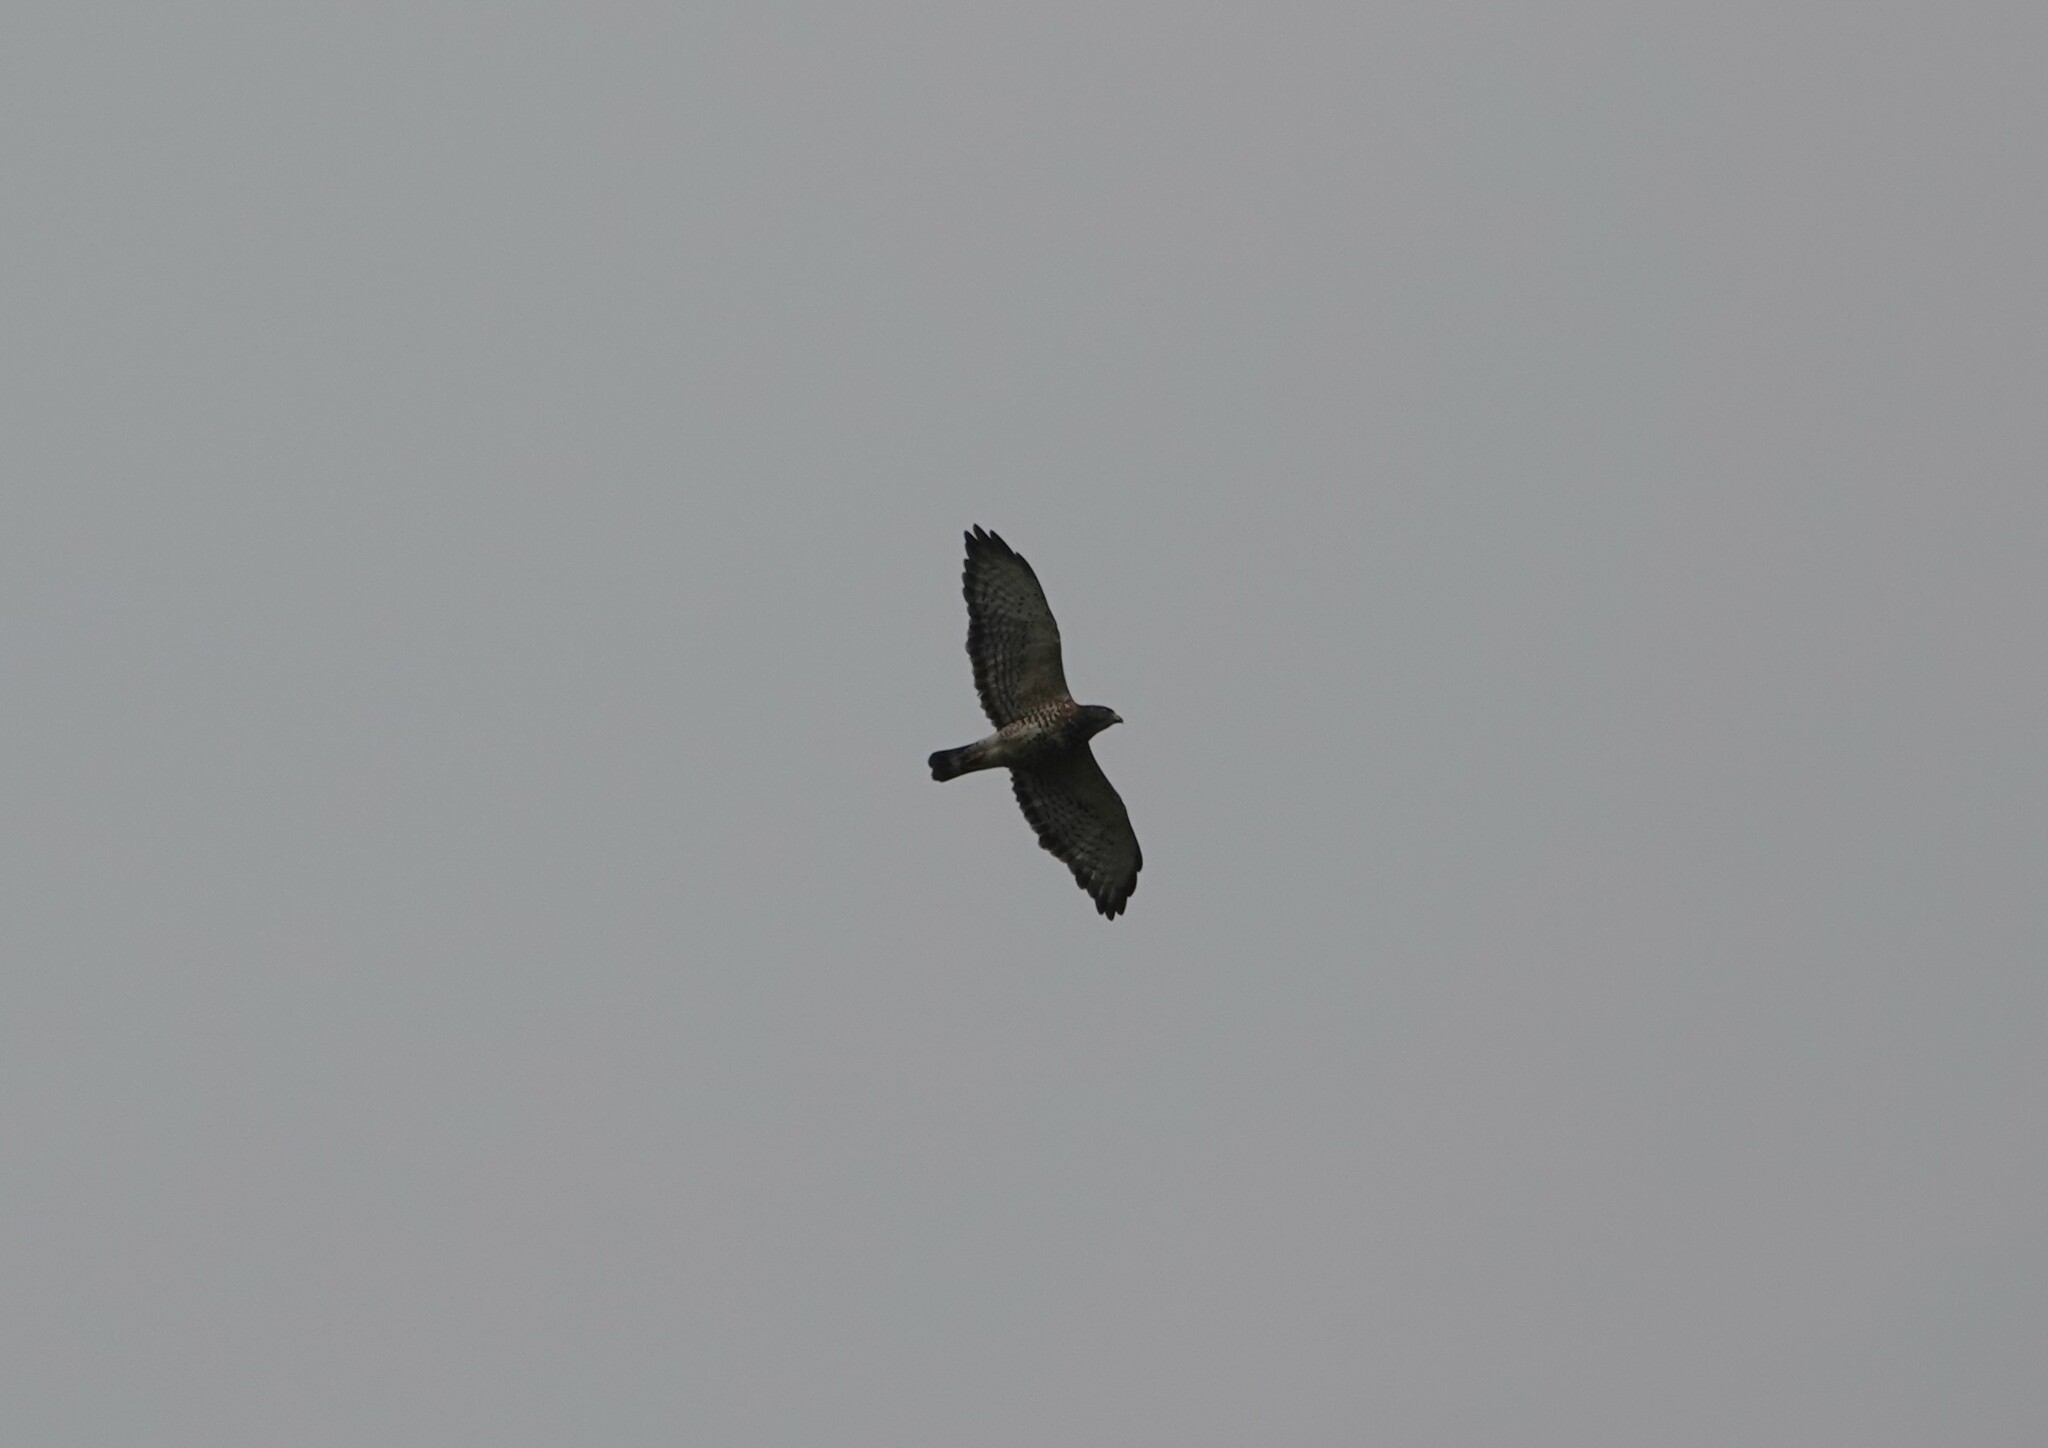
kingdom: Animalia
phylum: Chordata
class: Aves
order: Accipitriformes
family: Accipitridae
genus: Buteo
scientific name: Buteo platypterus
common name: Broad-winged hawk
